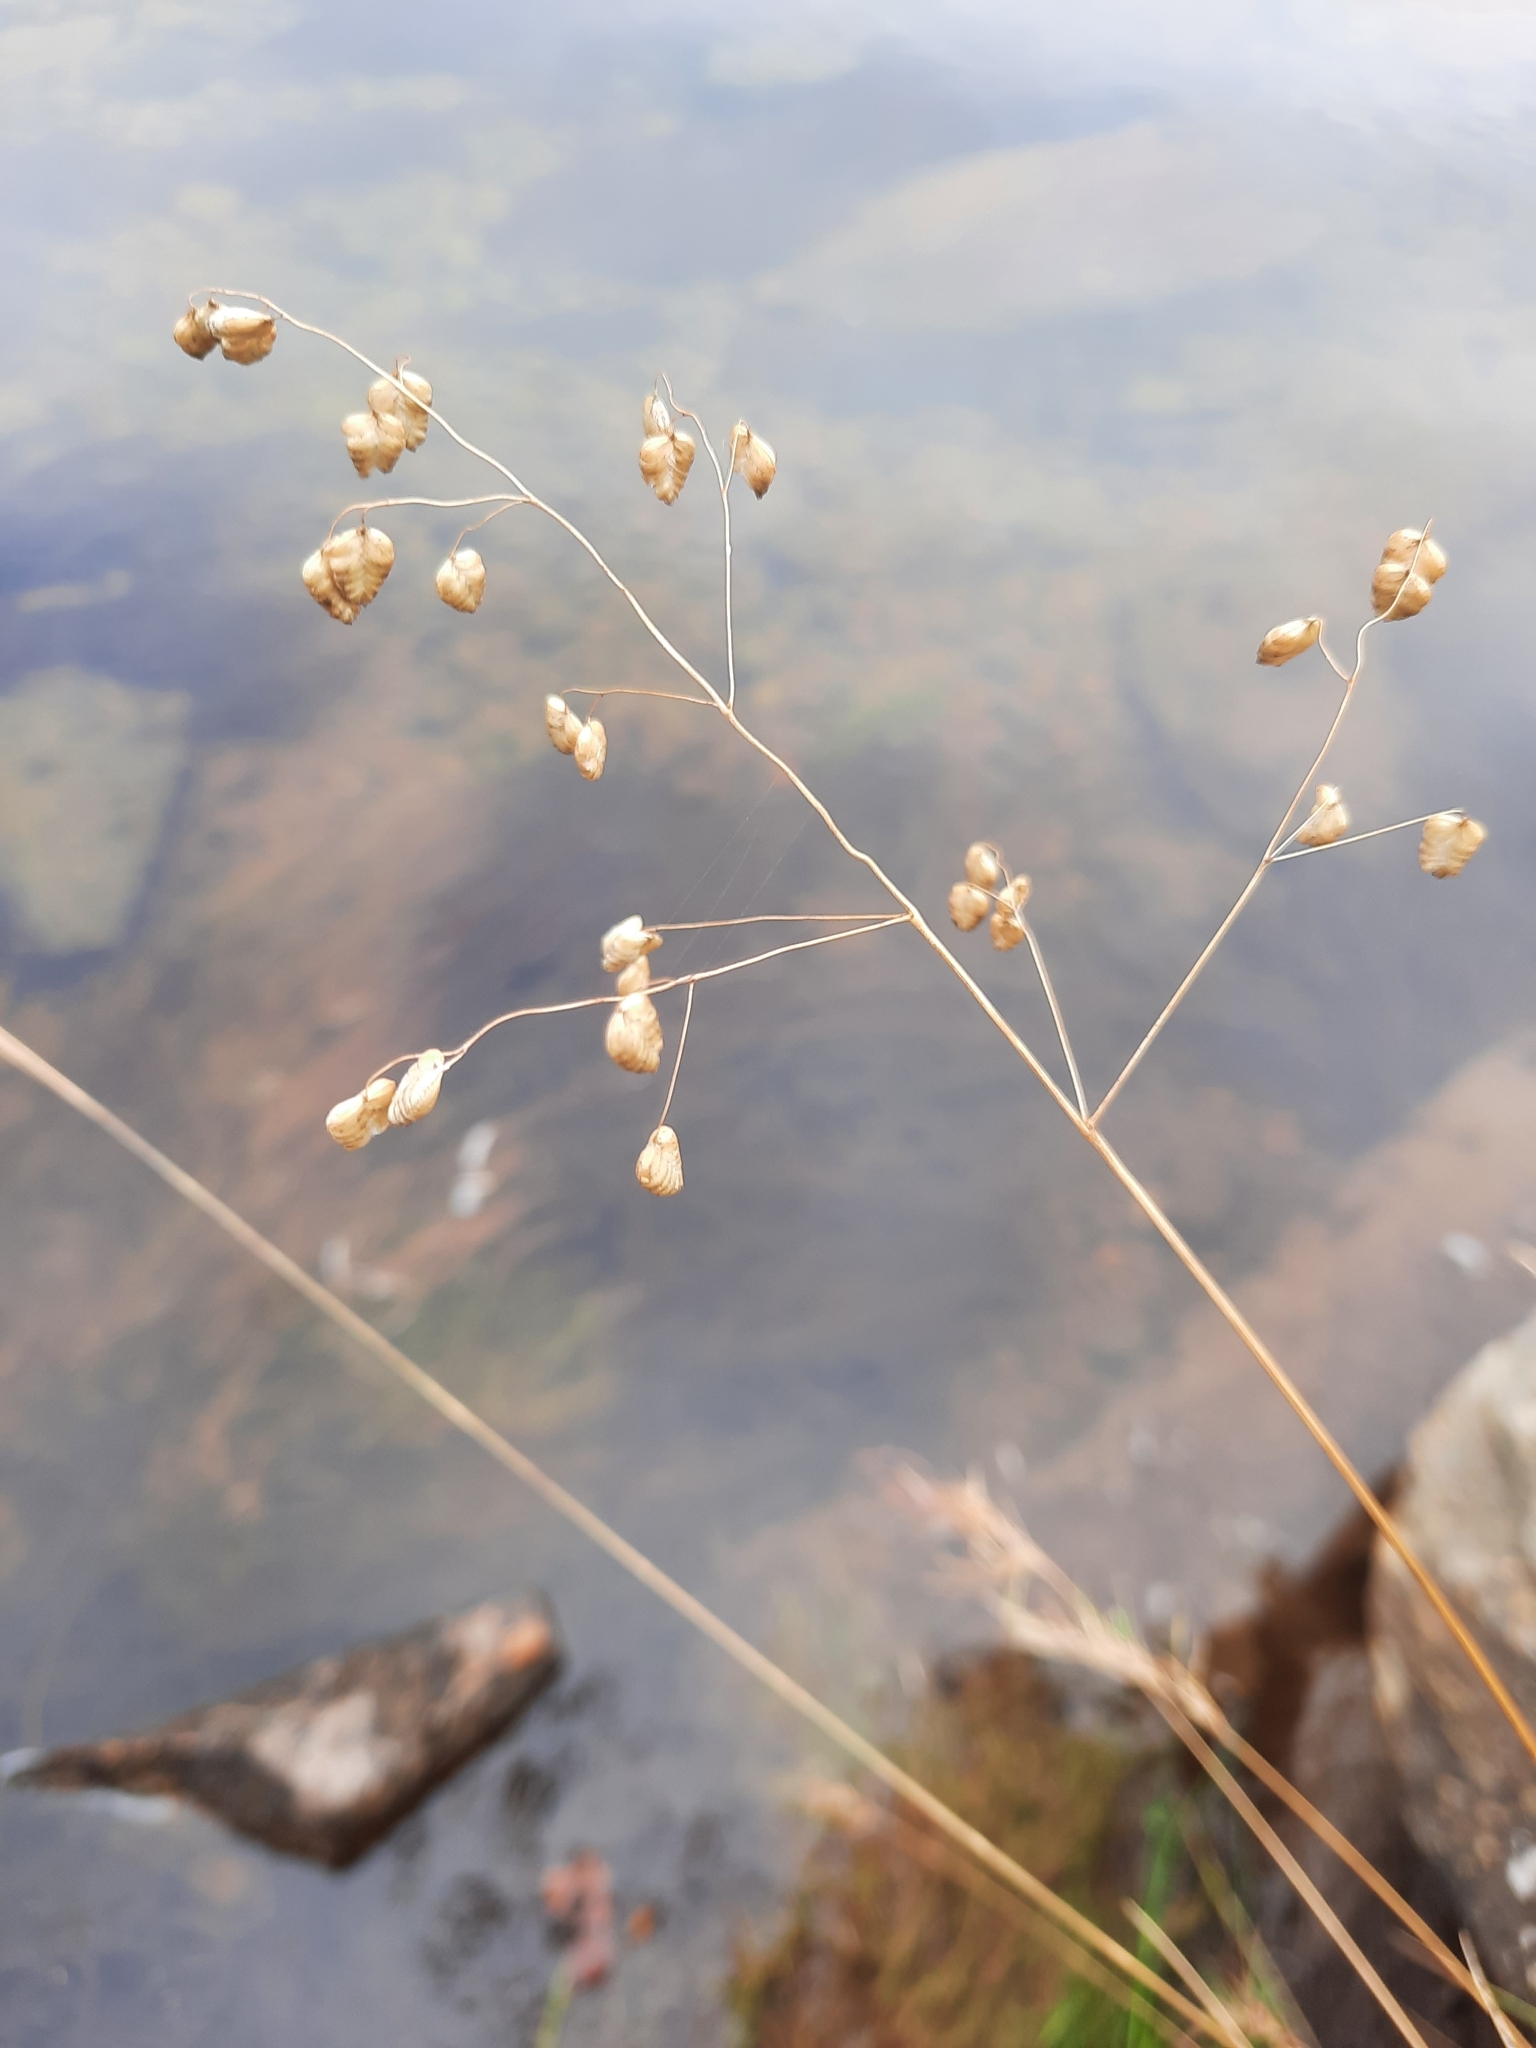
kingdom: Plantae
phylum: Tracheophyta
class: Liliopsida
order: Poales
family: Poaceae
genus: Briza
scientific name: Briza media
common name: Quaking grass
